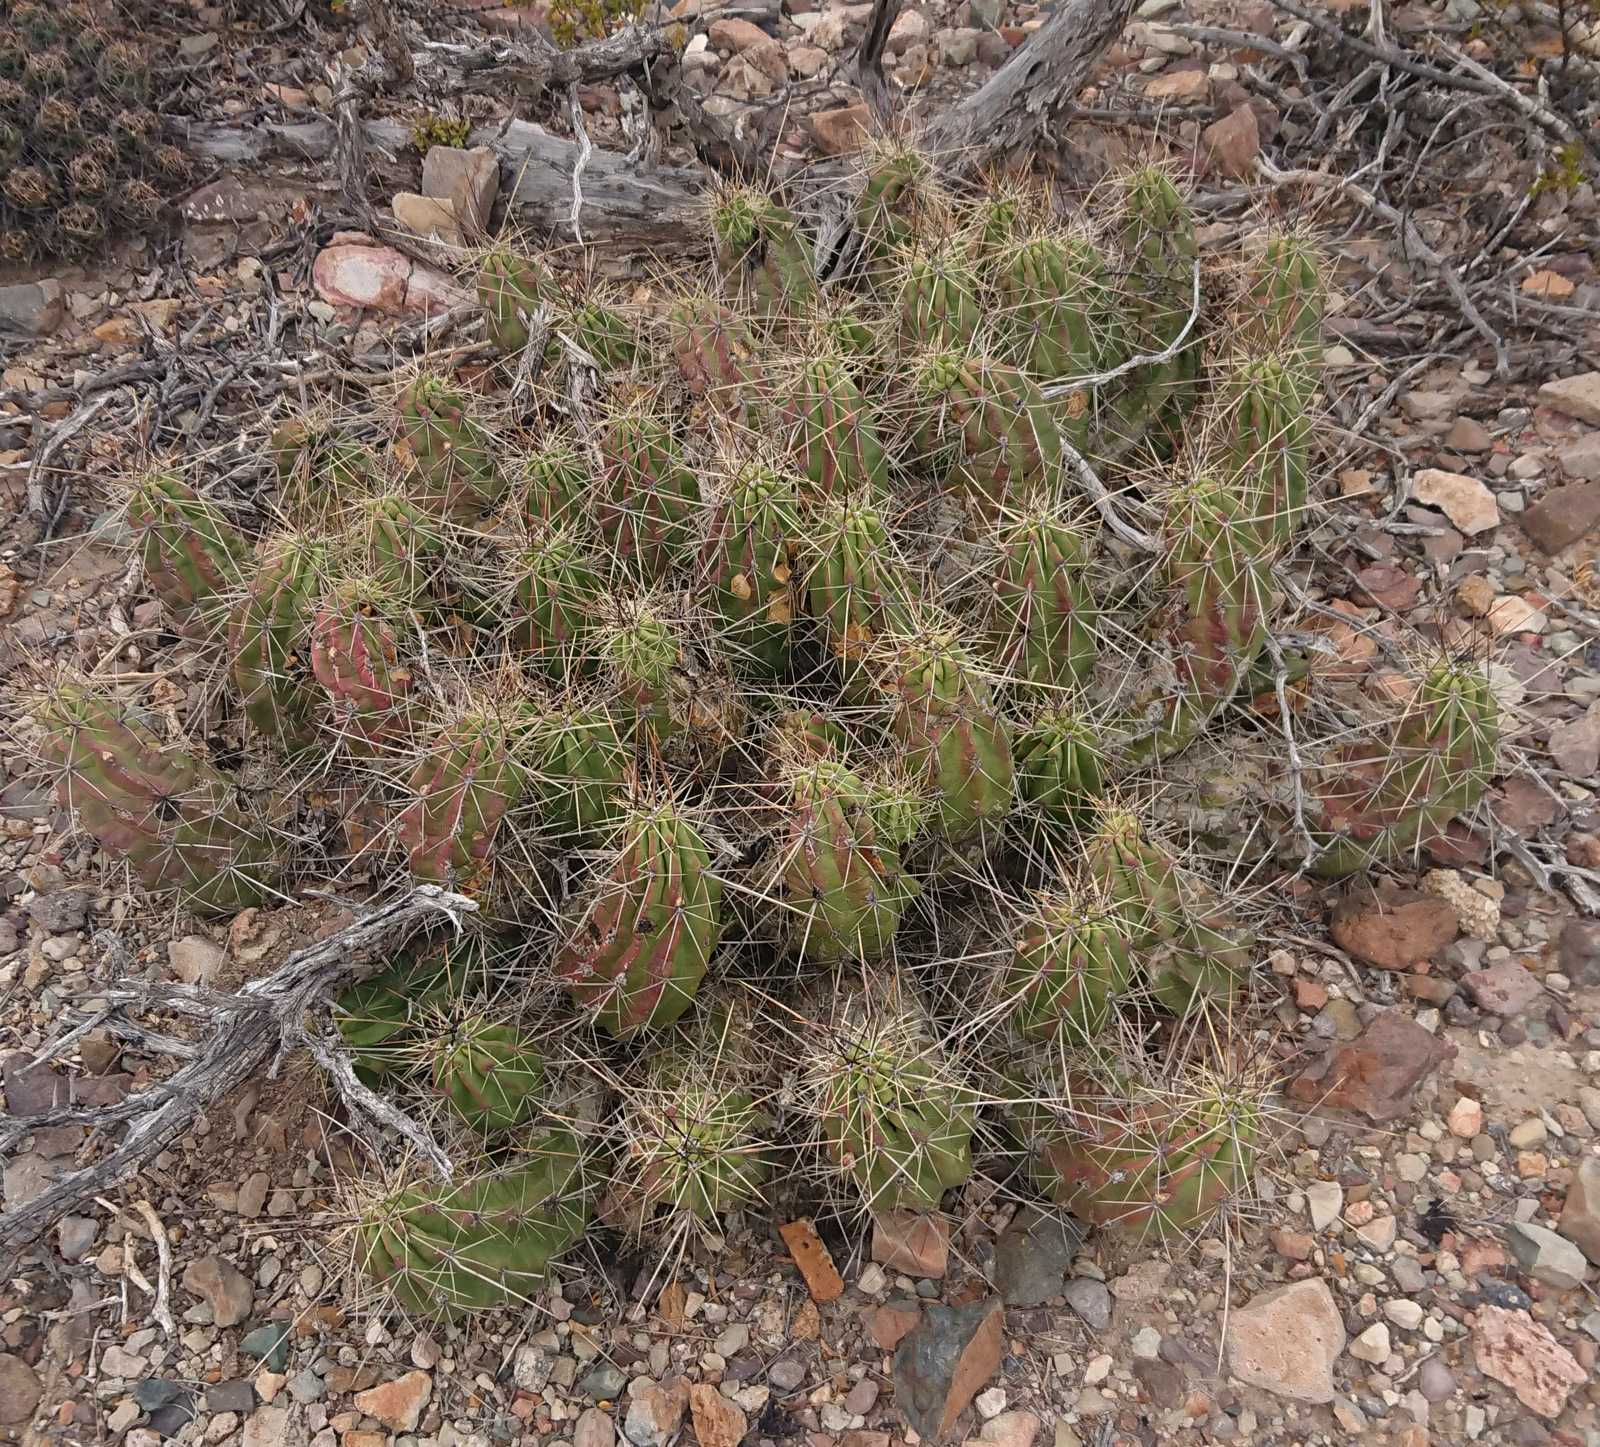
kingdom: Plantae
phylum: Tracheophyta
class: Magnoliopsida
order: Caryophyllales
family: Cactaceae
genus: Echinocereus
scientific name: Echinocereus enneacanthus
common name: Pitaya
